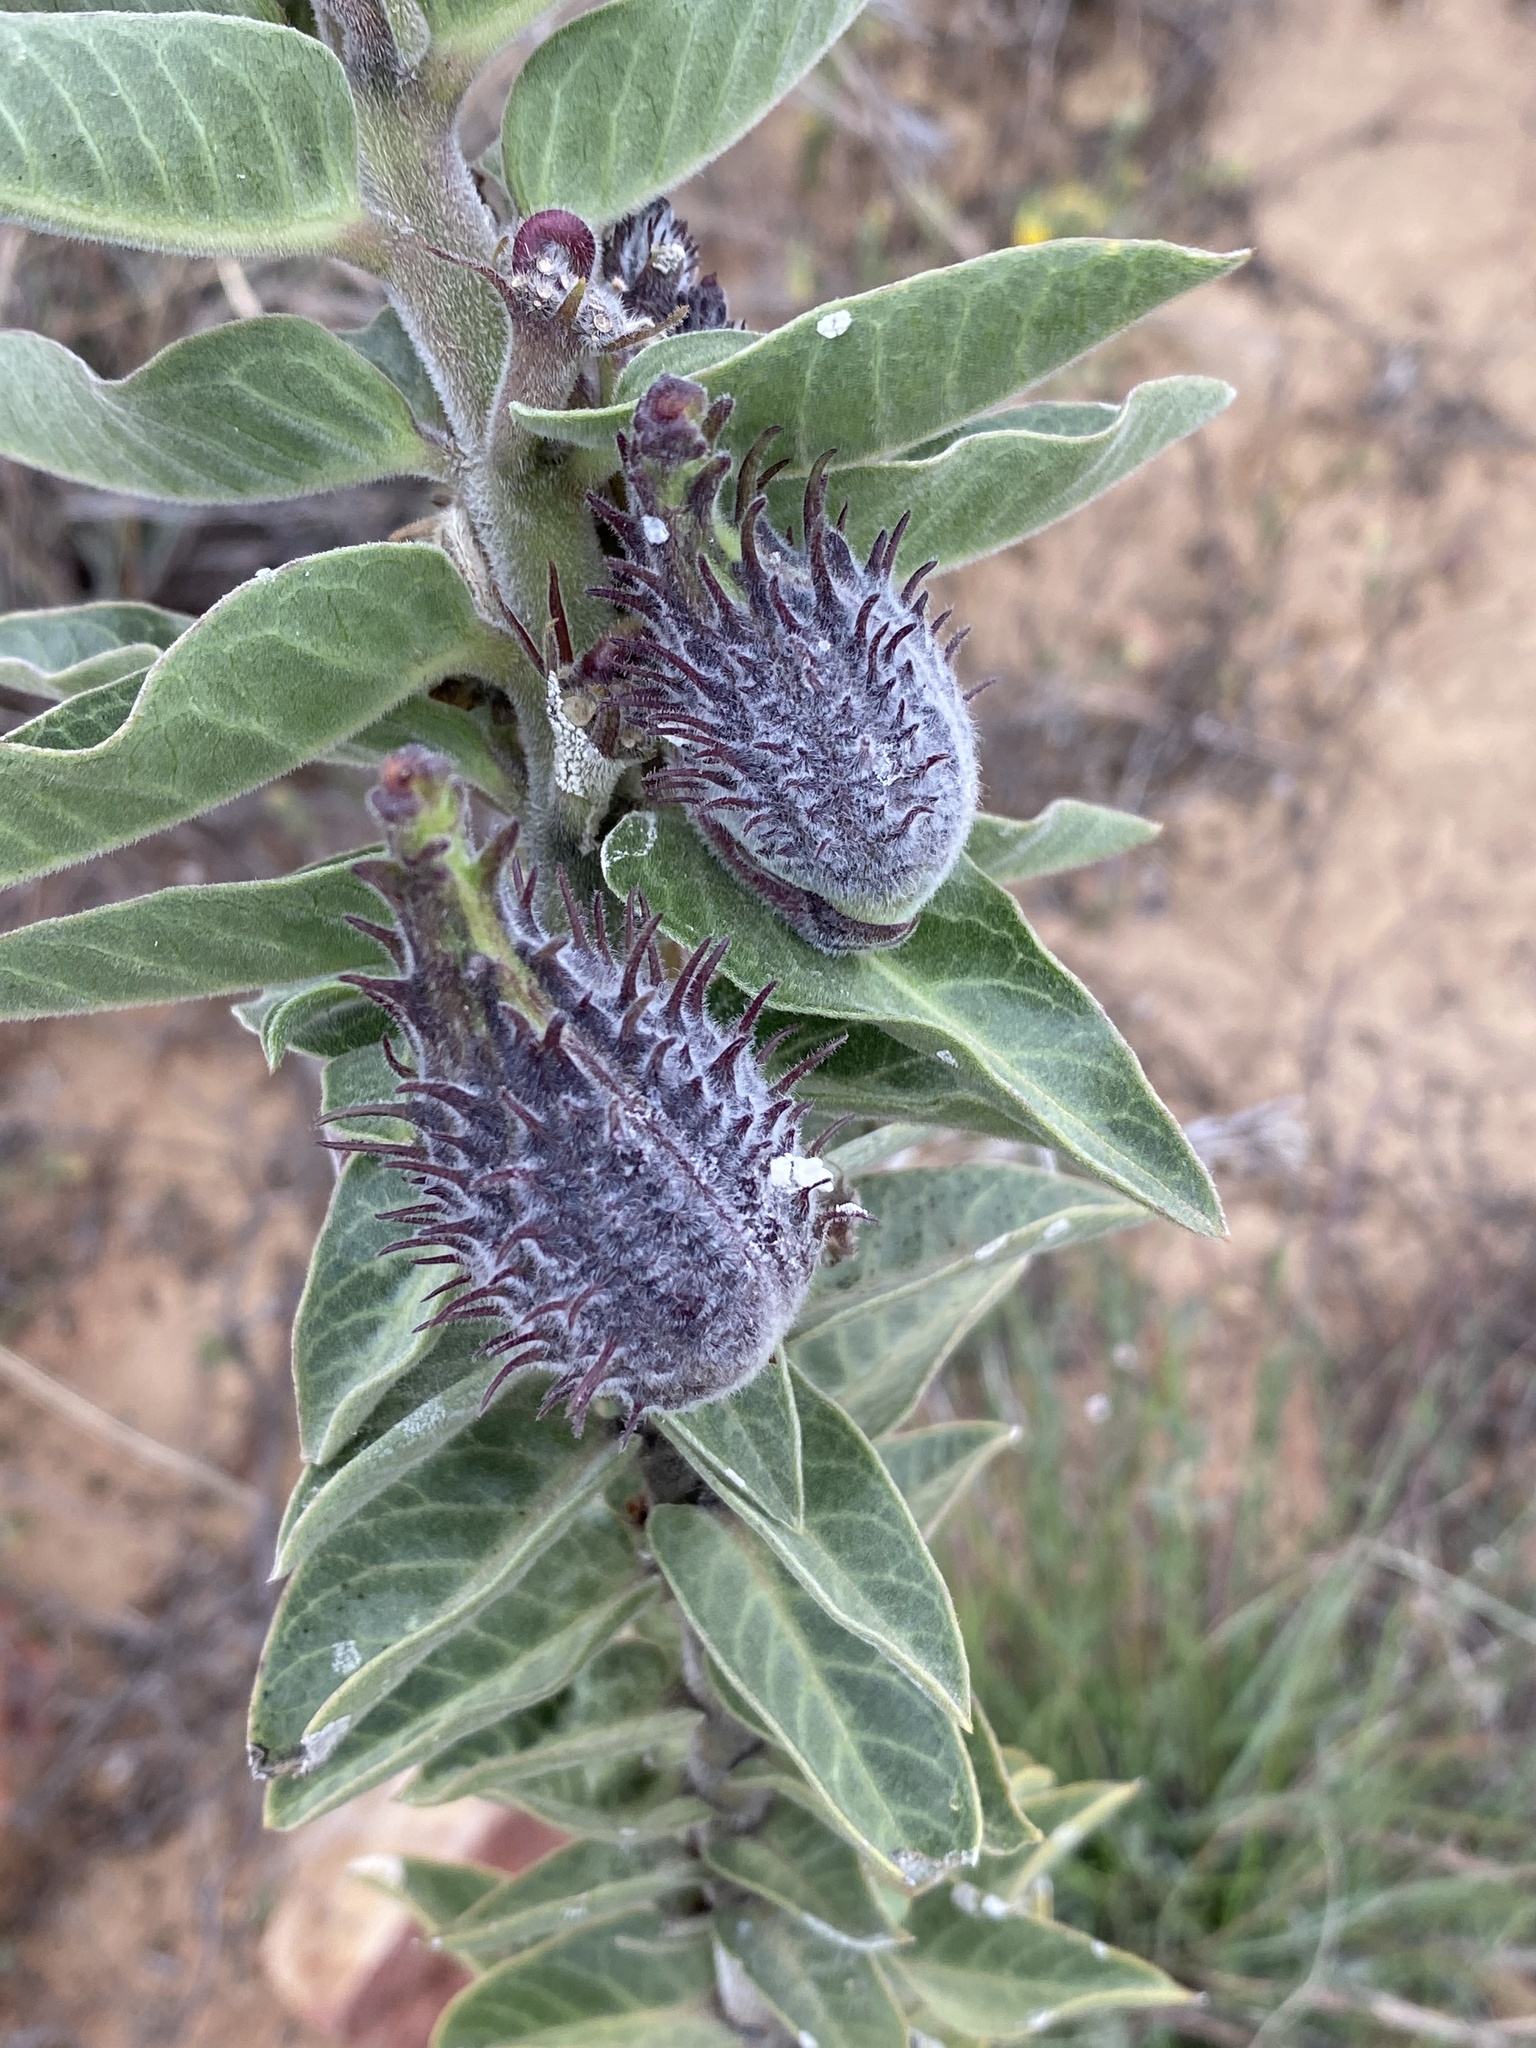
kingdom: Plantae
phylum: Tracheophyta
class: Magnoliopsida
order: Gentianales
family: Apocynaceae
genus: Gomphocarpus
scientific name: Gomphocarpus cancellatus
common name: Wild cotton
